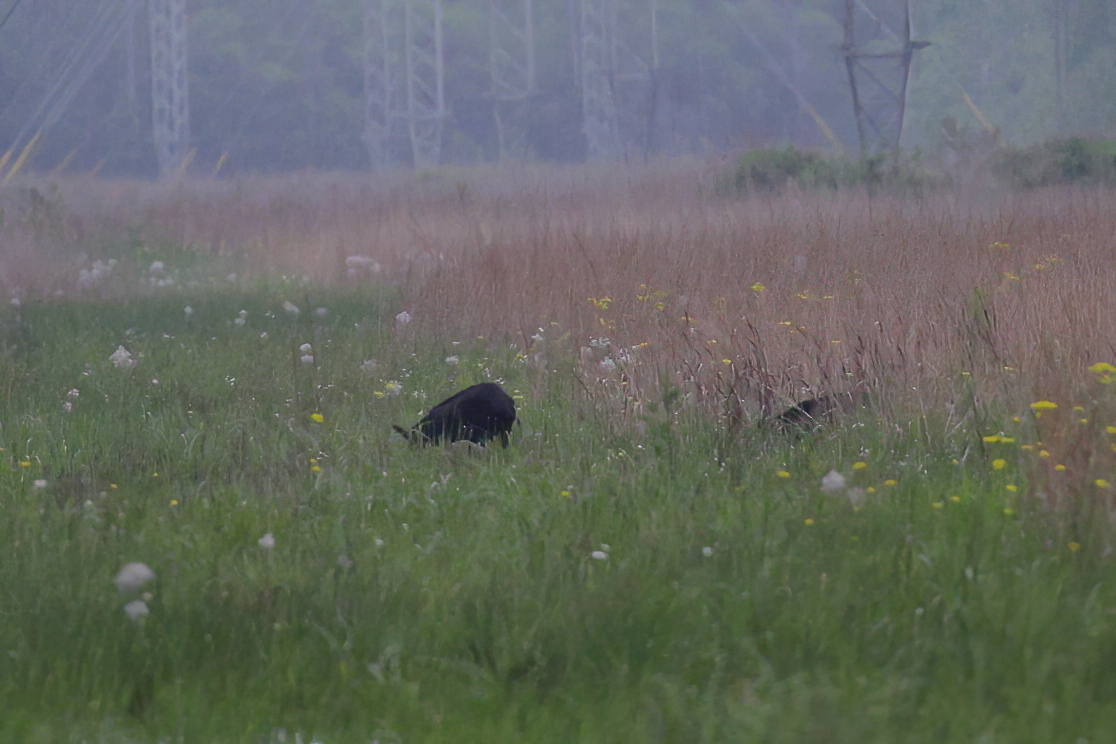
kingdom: Animalia
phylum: Chordata
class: Mammalia
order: Artiodactyla
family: Suidae
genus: Sus
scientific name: Sus scrofa
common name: Wild boar
